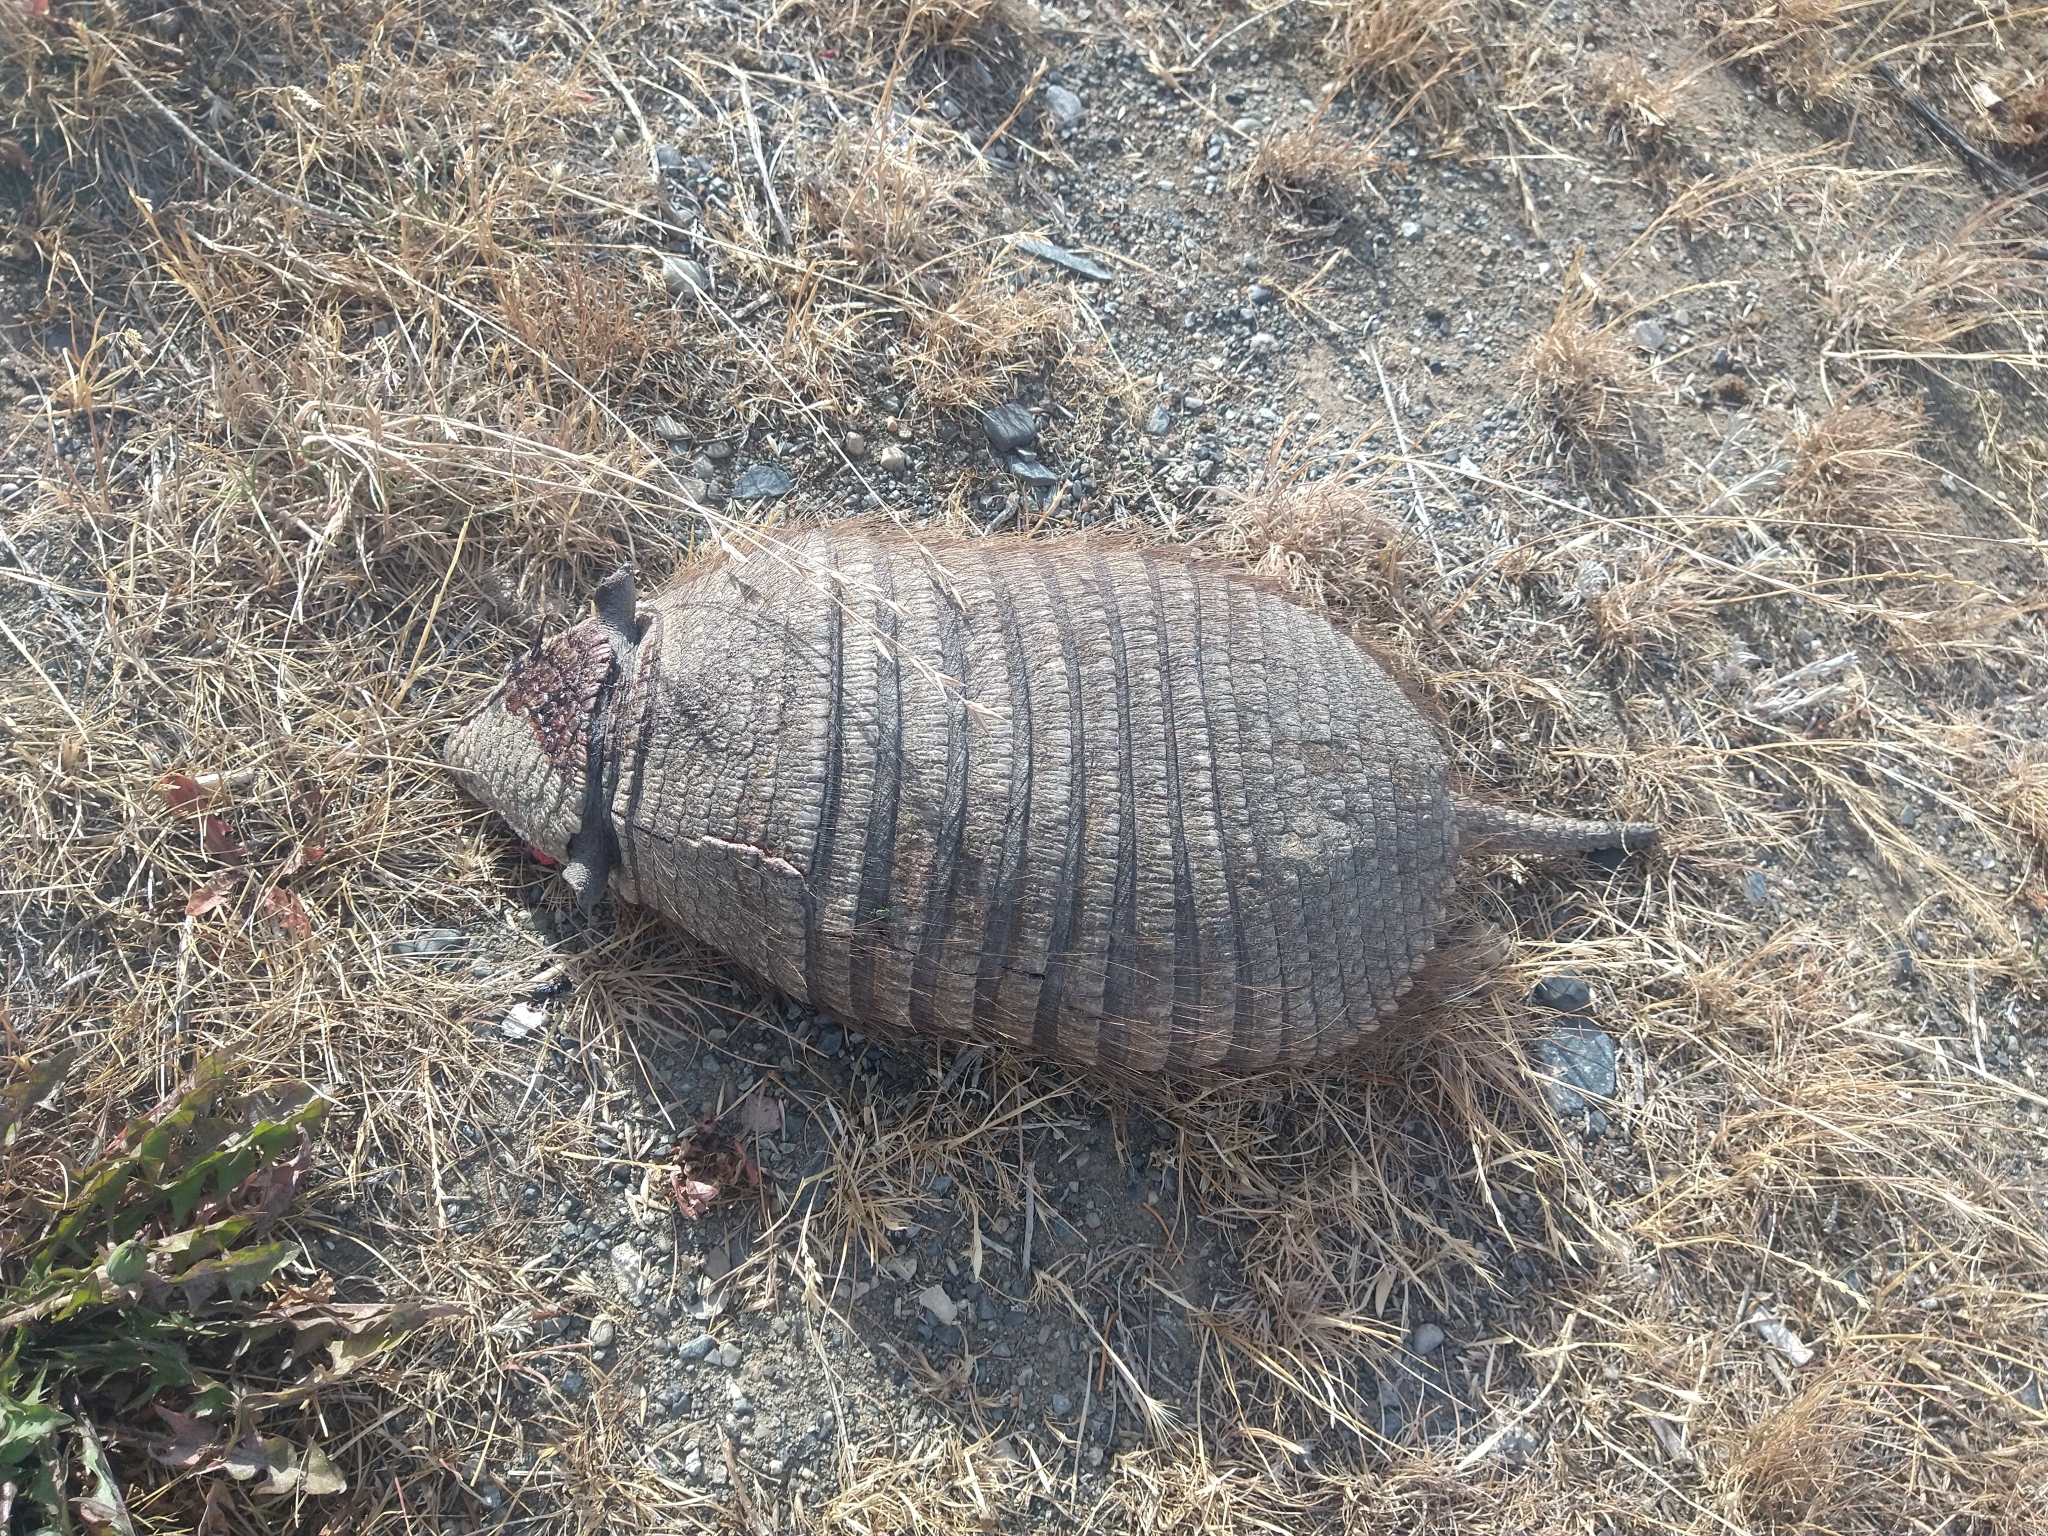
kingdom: Animalia
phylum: Chordata
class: Mammalia
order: Cingulata
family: Dasypodidae
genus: Chaetophractus
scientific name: Chaetophractus villosus
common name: Big hairy armadillo
